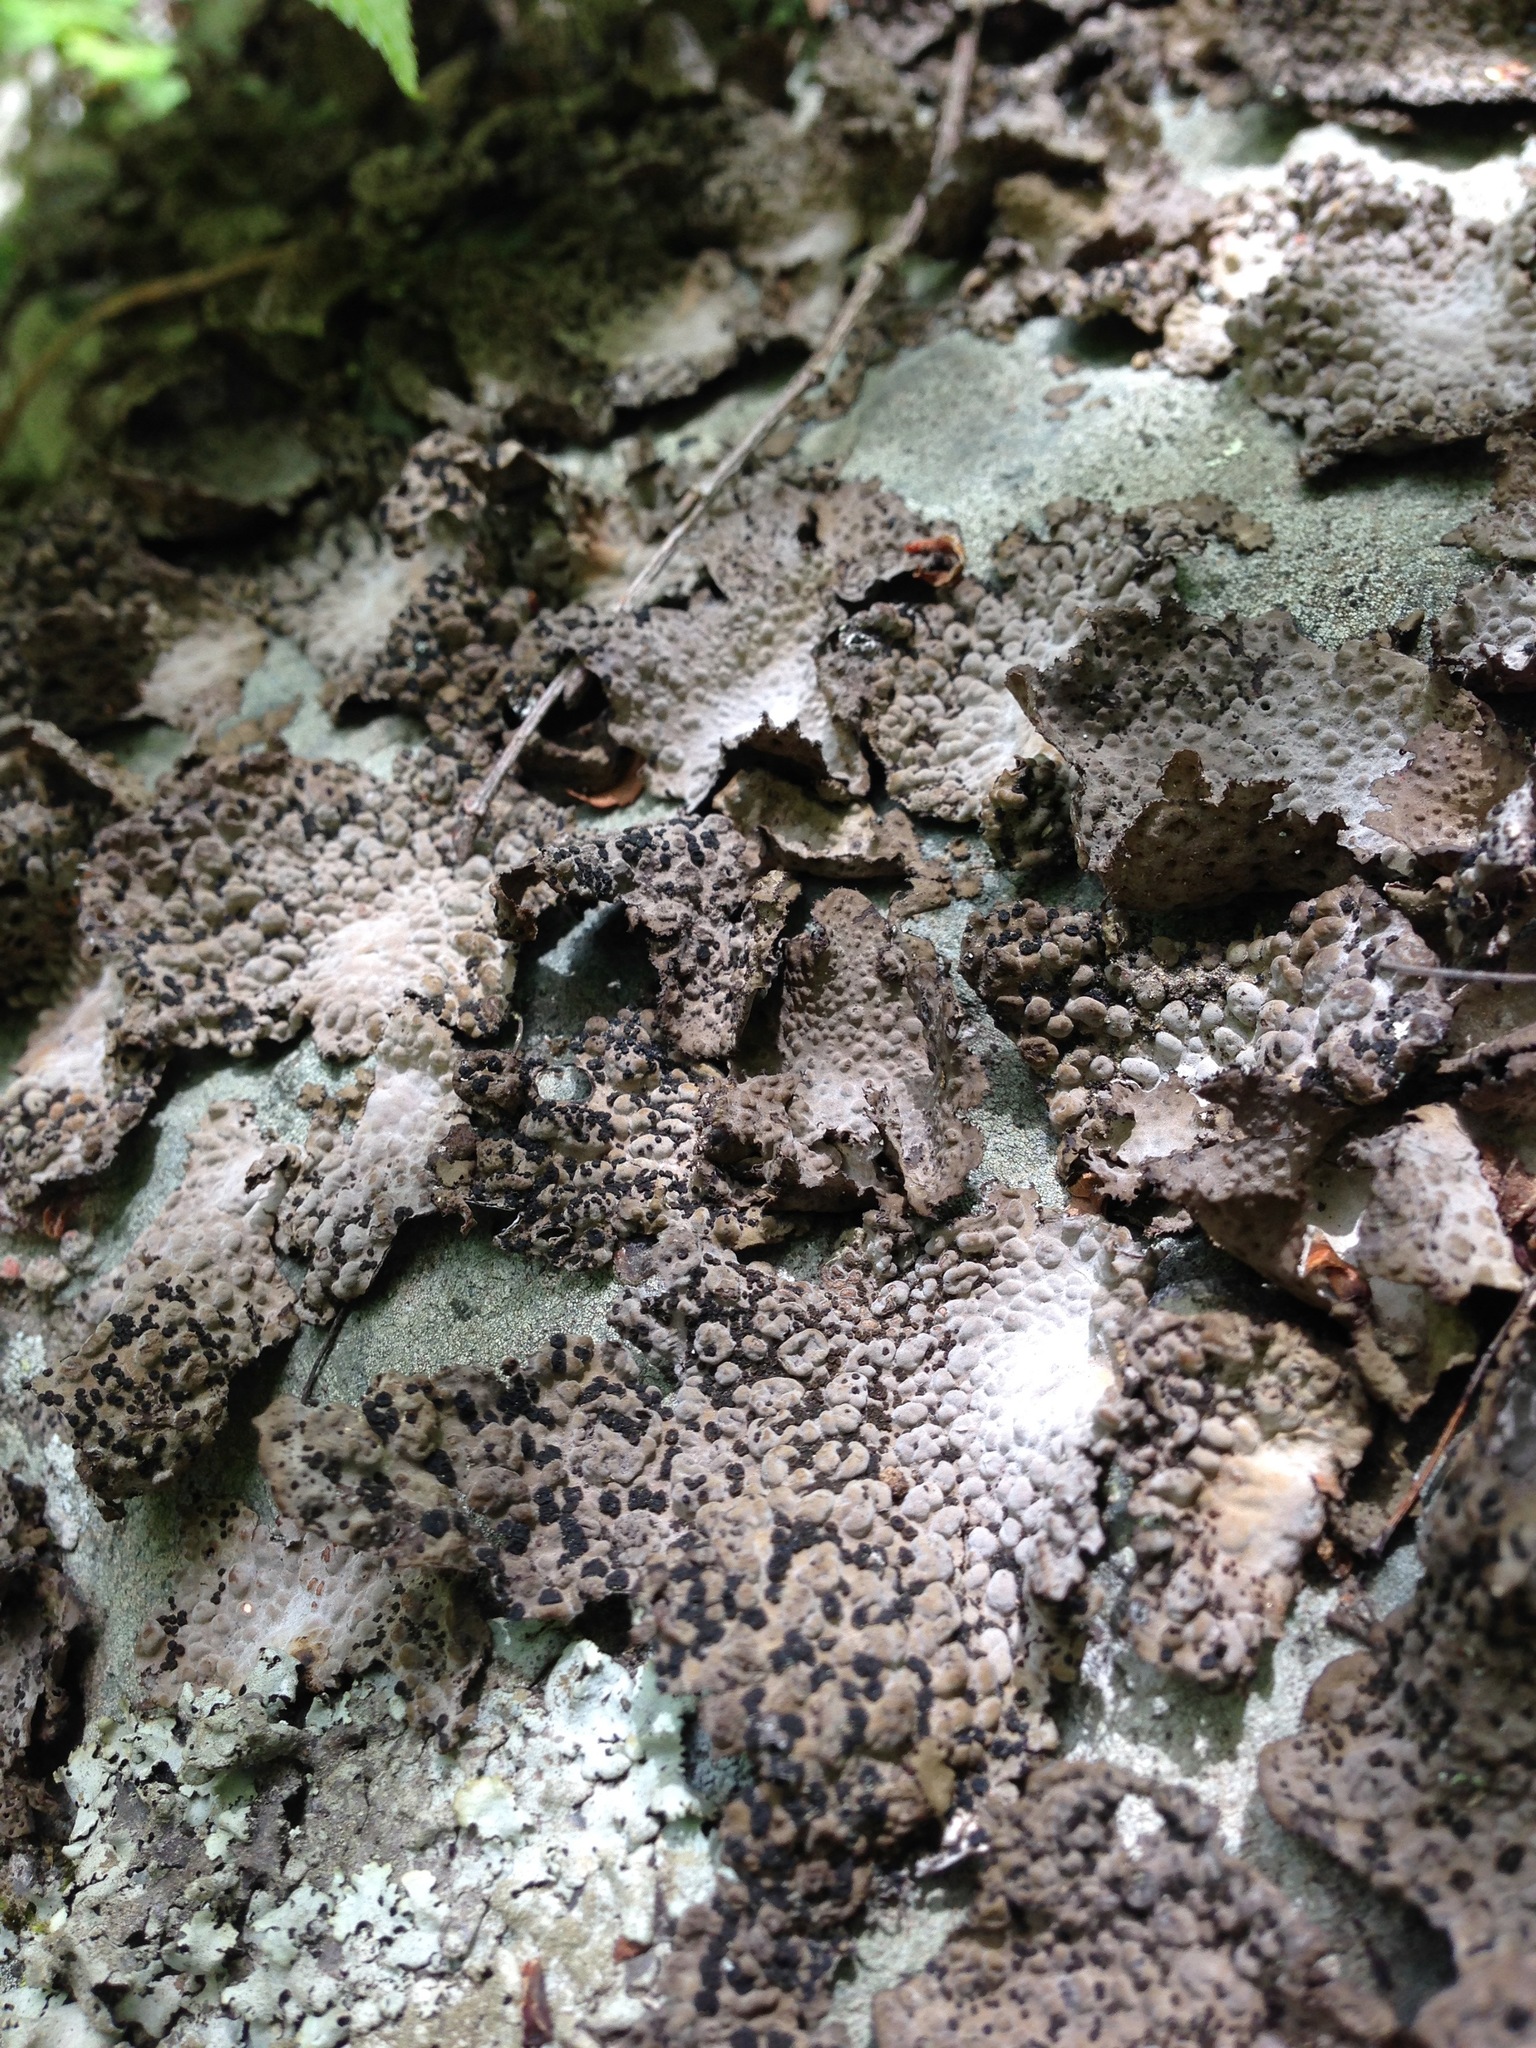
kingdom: Fungi
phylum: Ascomycota
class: Lecanoromycetes
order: Umbilicariales
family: Umbilicariaceae
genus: Lasallia
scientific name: Lasallia papulosa
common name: Common toadskin lichen
